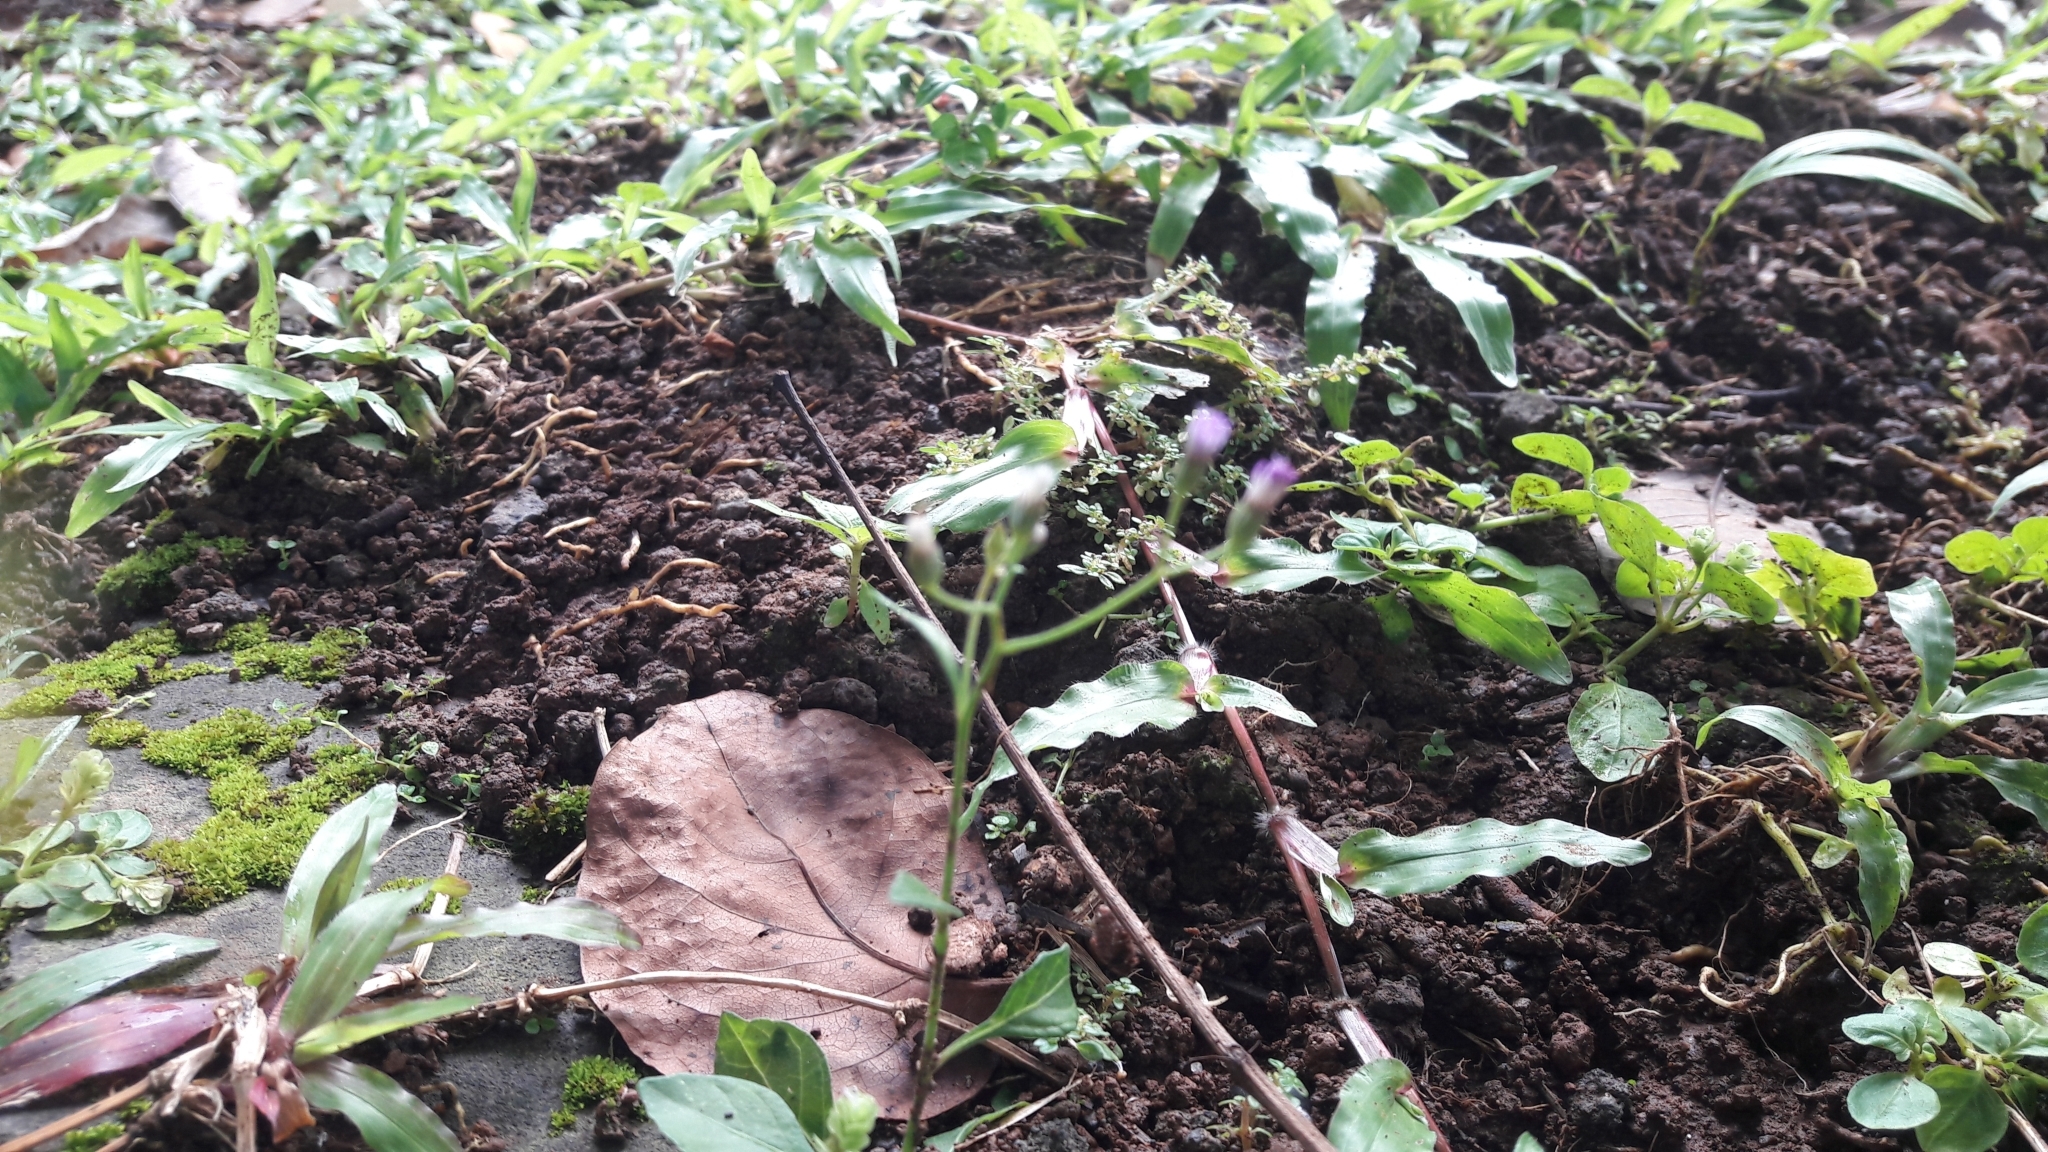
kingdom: Plantae
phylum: Tracheophyta
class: Magnoliopsida
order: Asterales
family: Asteraceae
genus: Cyanthillium
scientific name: Cyanthillium cinereum
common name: Little ironweed
